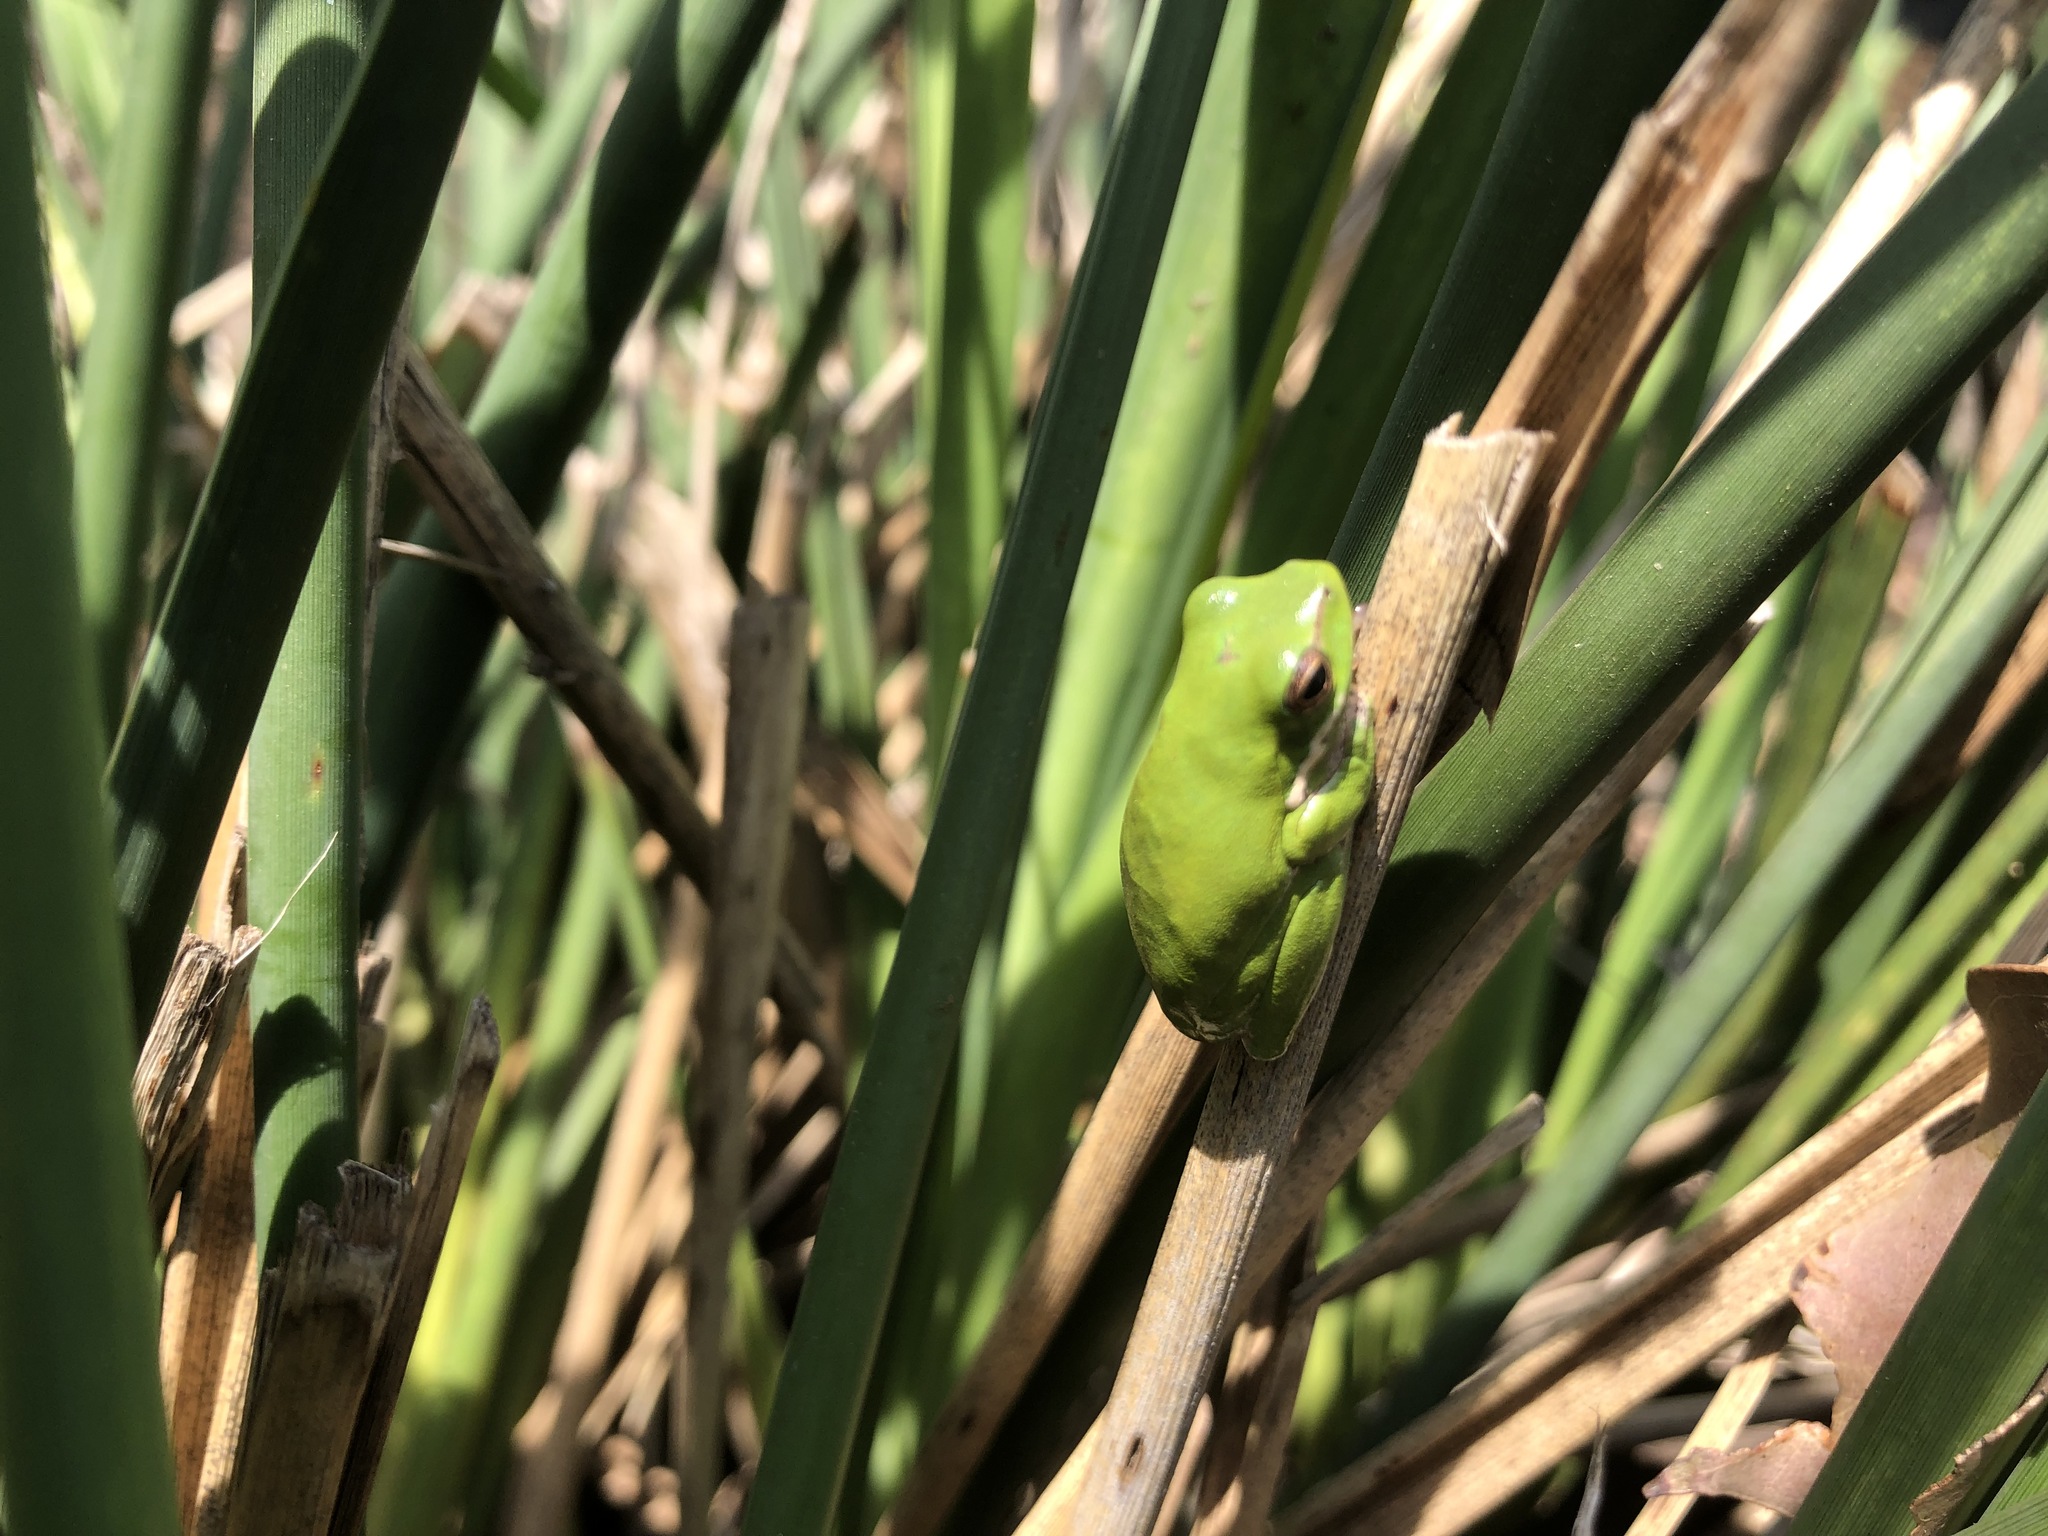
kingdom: Animalia
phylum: Chordata
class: Amphibia
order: Anura
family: Pelodryadidae
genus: Litoria
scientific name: Litoria fallax
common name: Eastern dwarf treefrog
